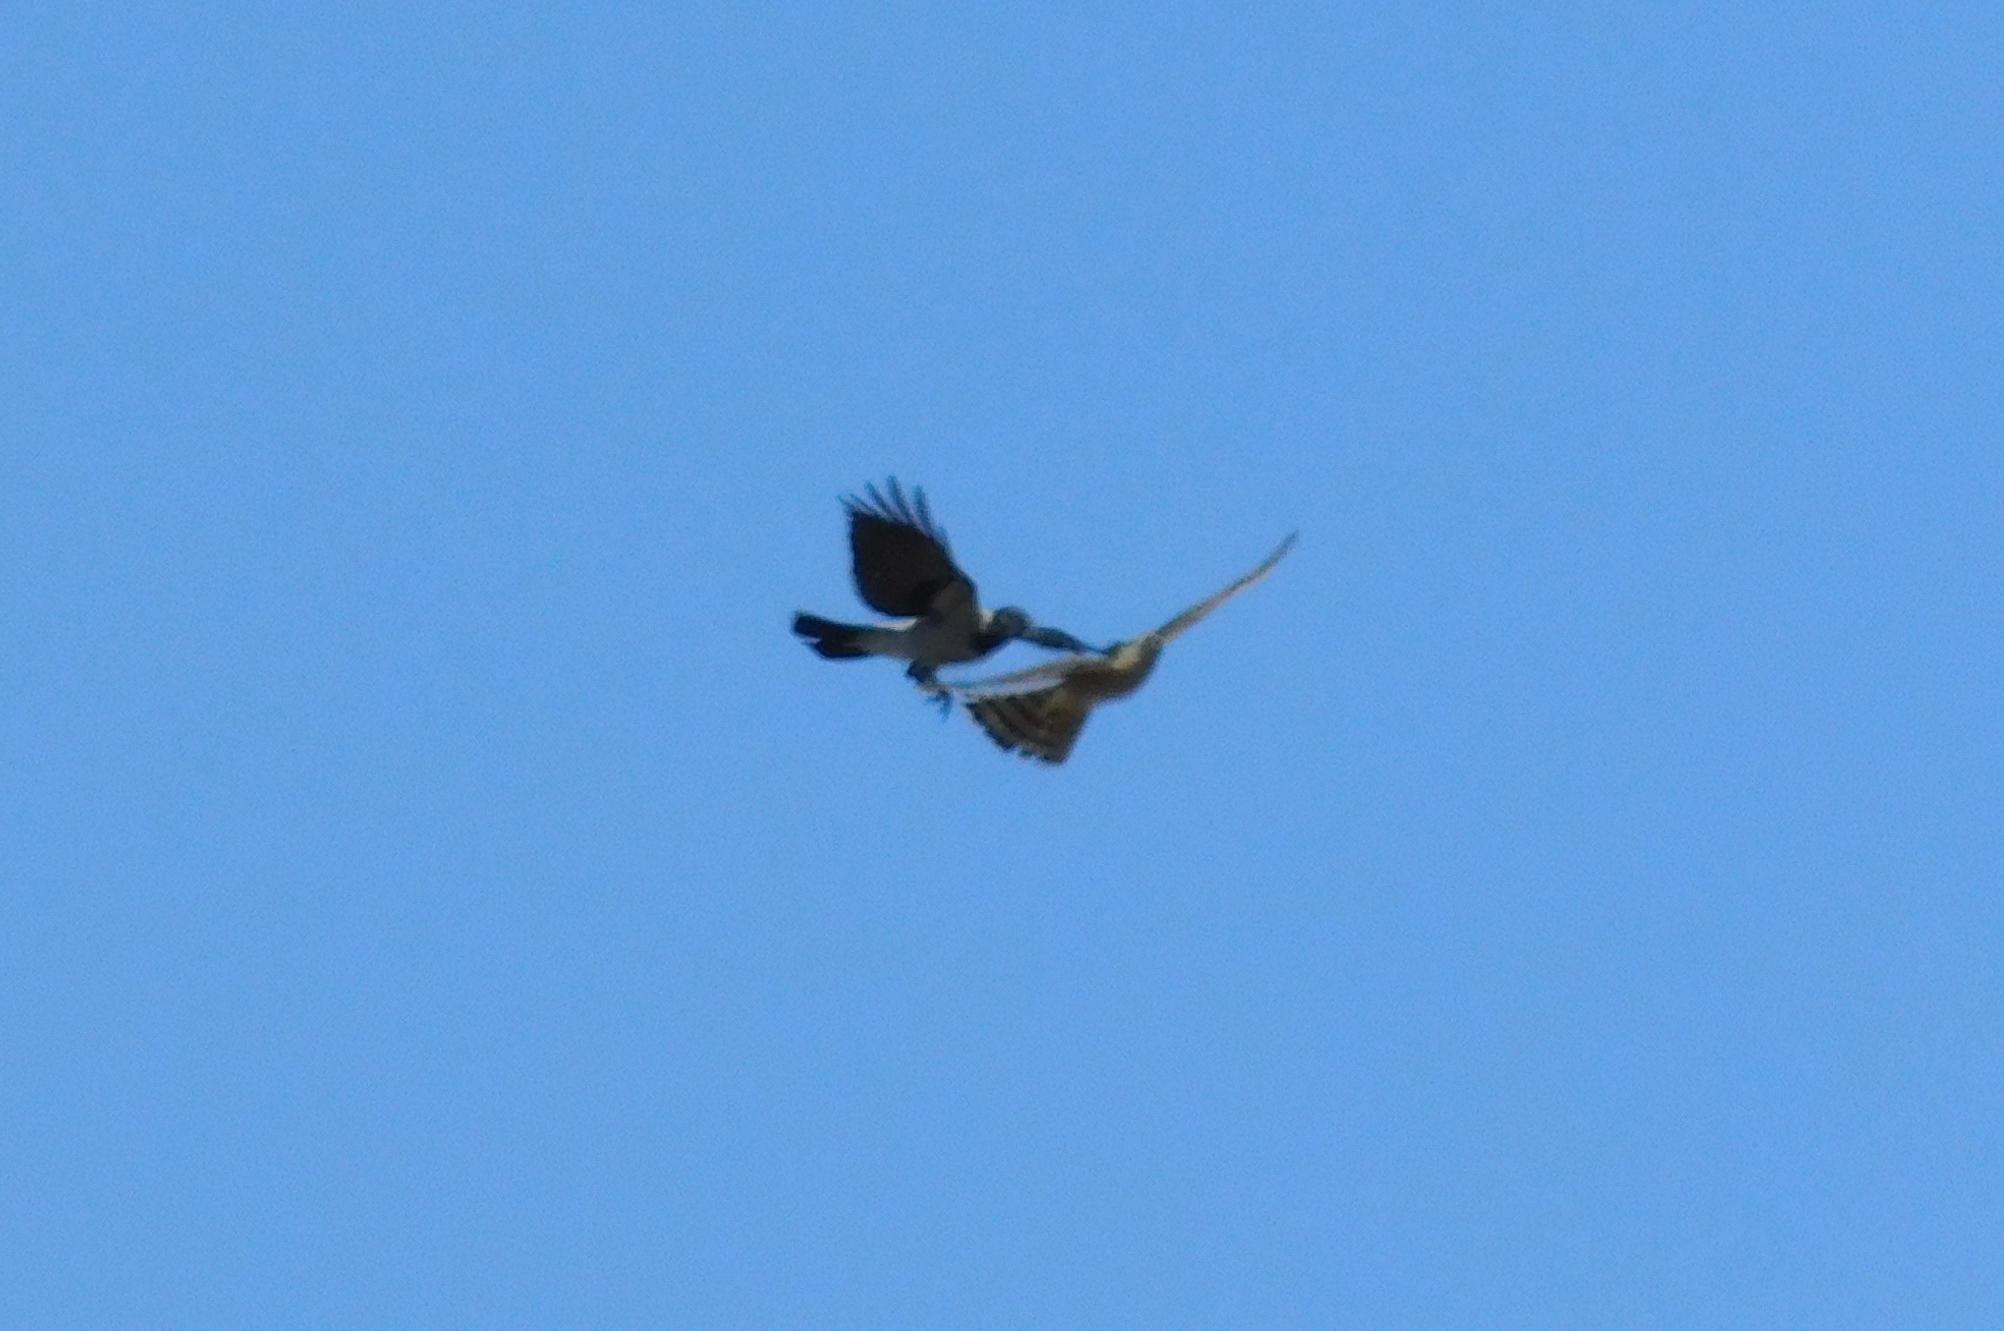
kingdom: Animalia
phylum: Chordata
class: Aves
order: Accipitriformes
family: Accipitridae
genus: Accipiter
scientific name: Accipiter nisus
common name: Eurasian sparrowhawk
